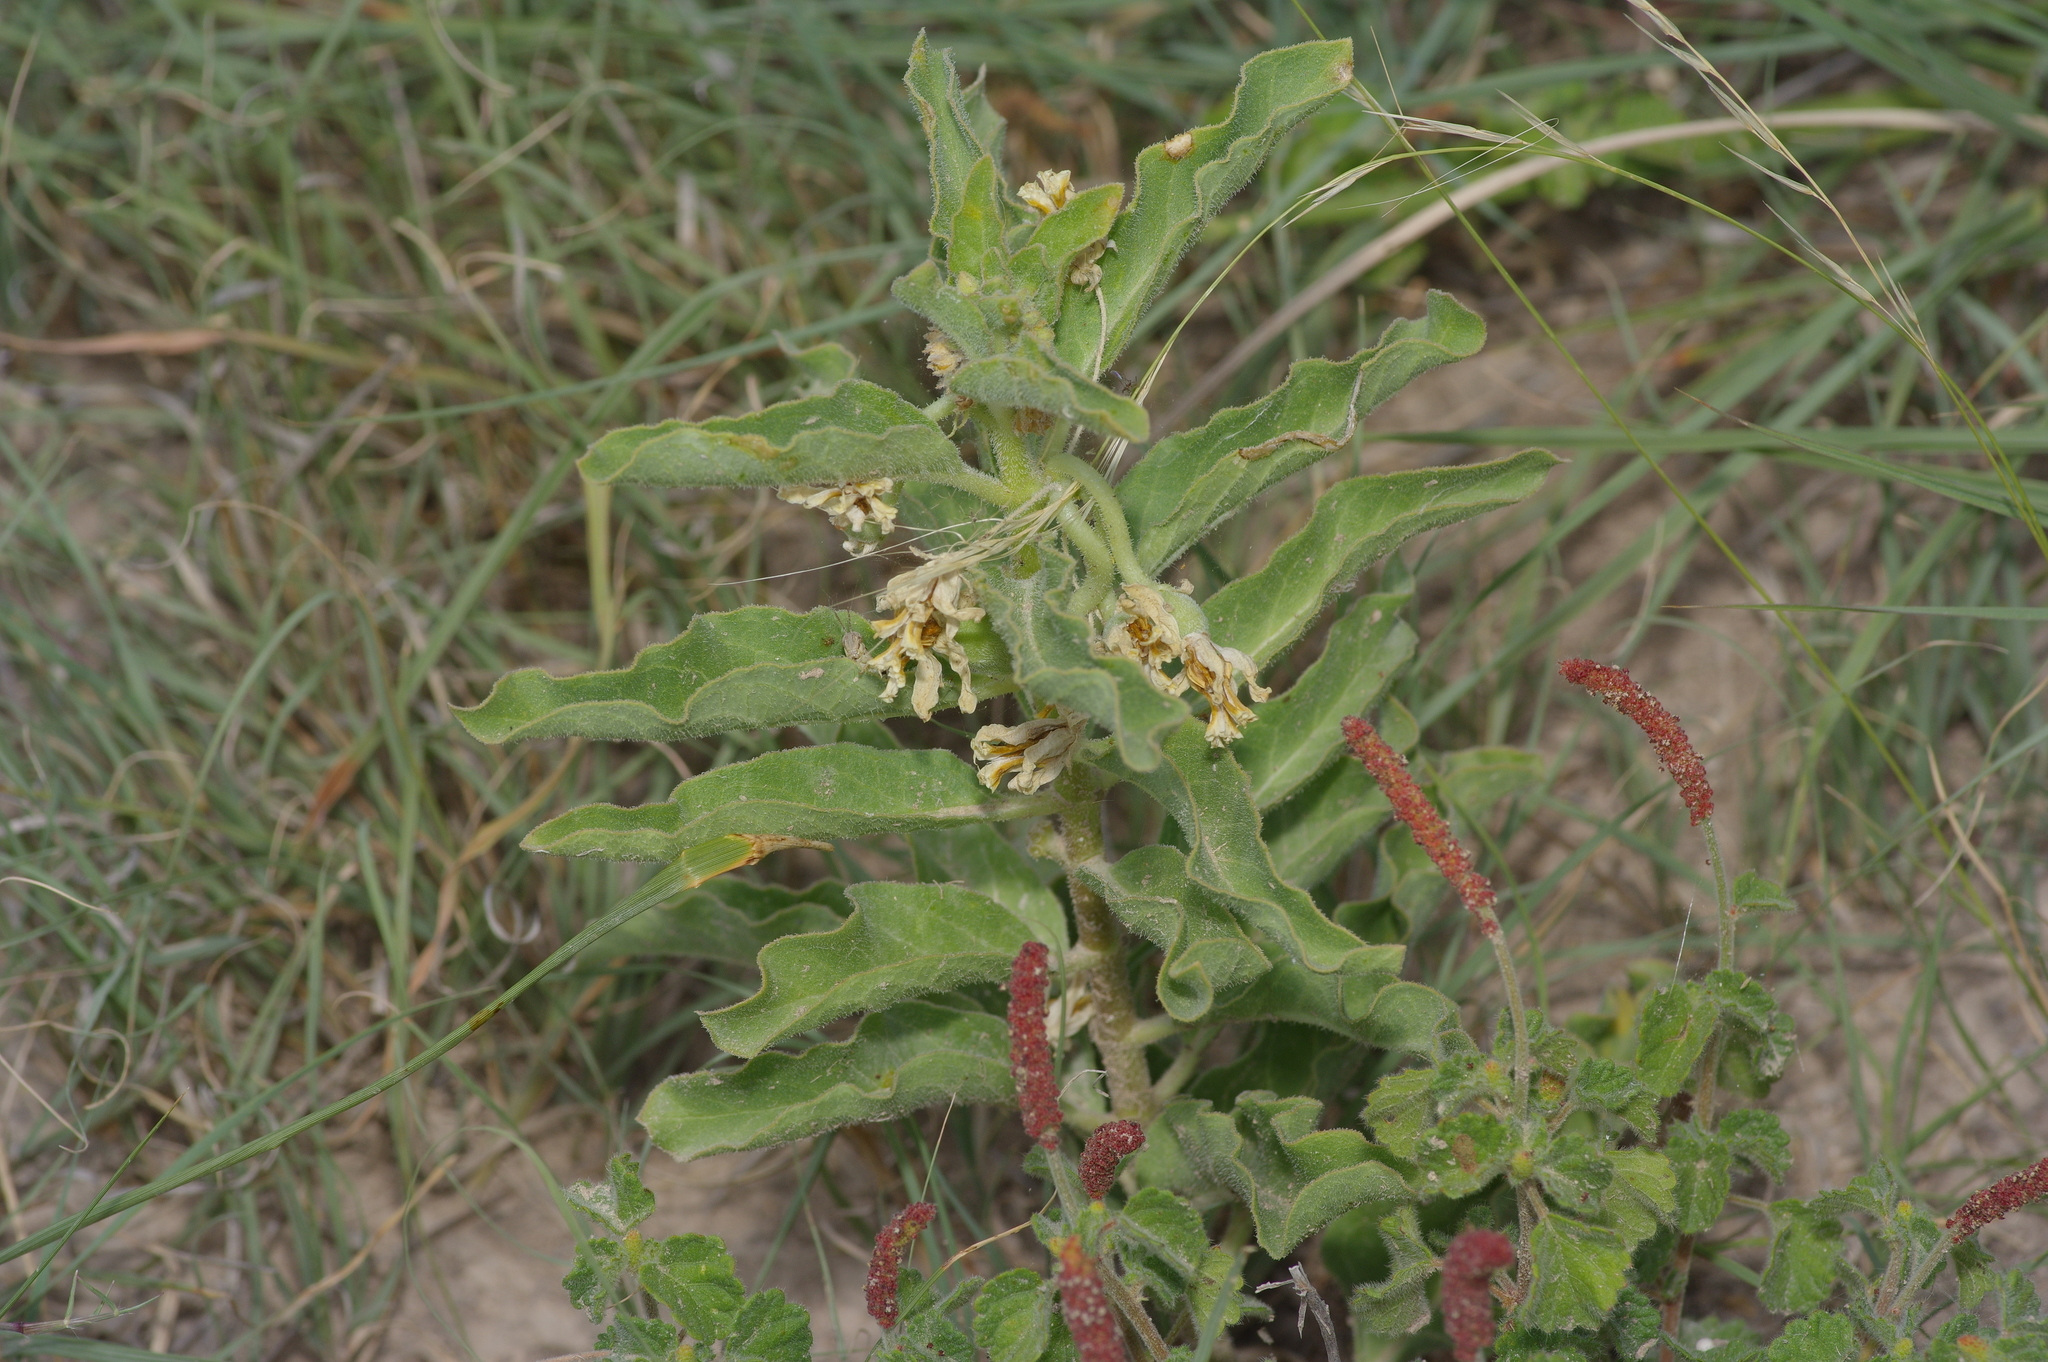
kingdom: Plantae
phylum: Tracheophyta
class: Magnoliopsida
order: Gentianales
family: Apocynaceae
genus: Asclepias
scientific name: Asclepias oenotheroides
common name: Zizotes milkweed
